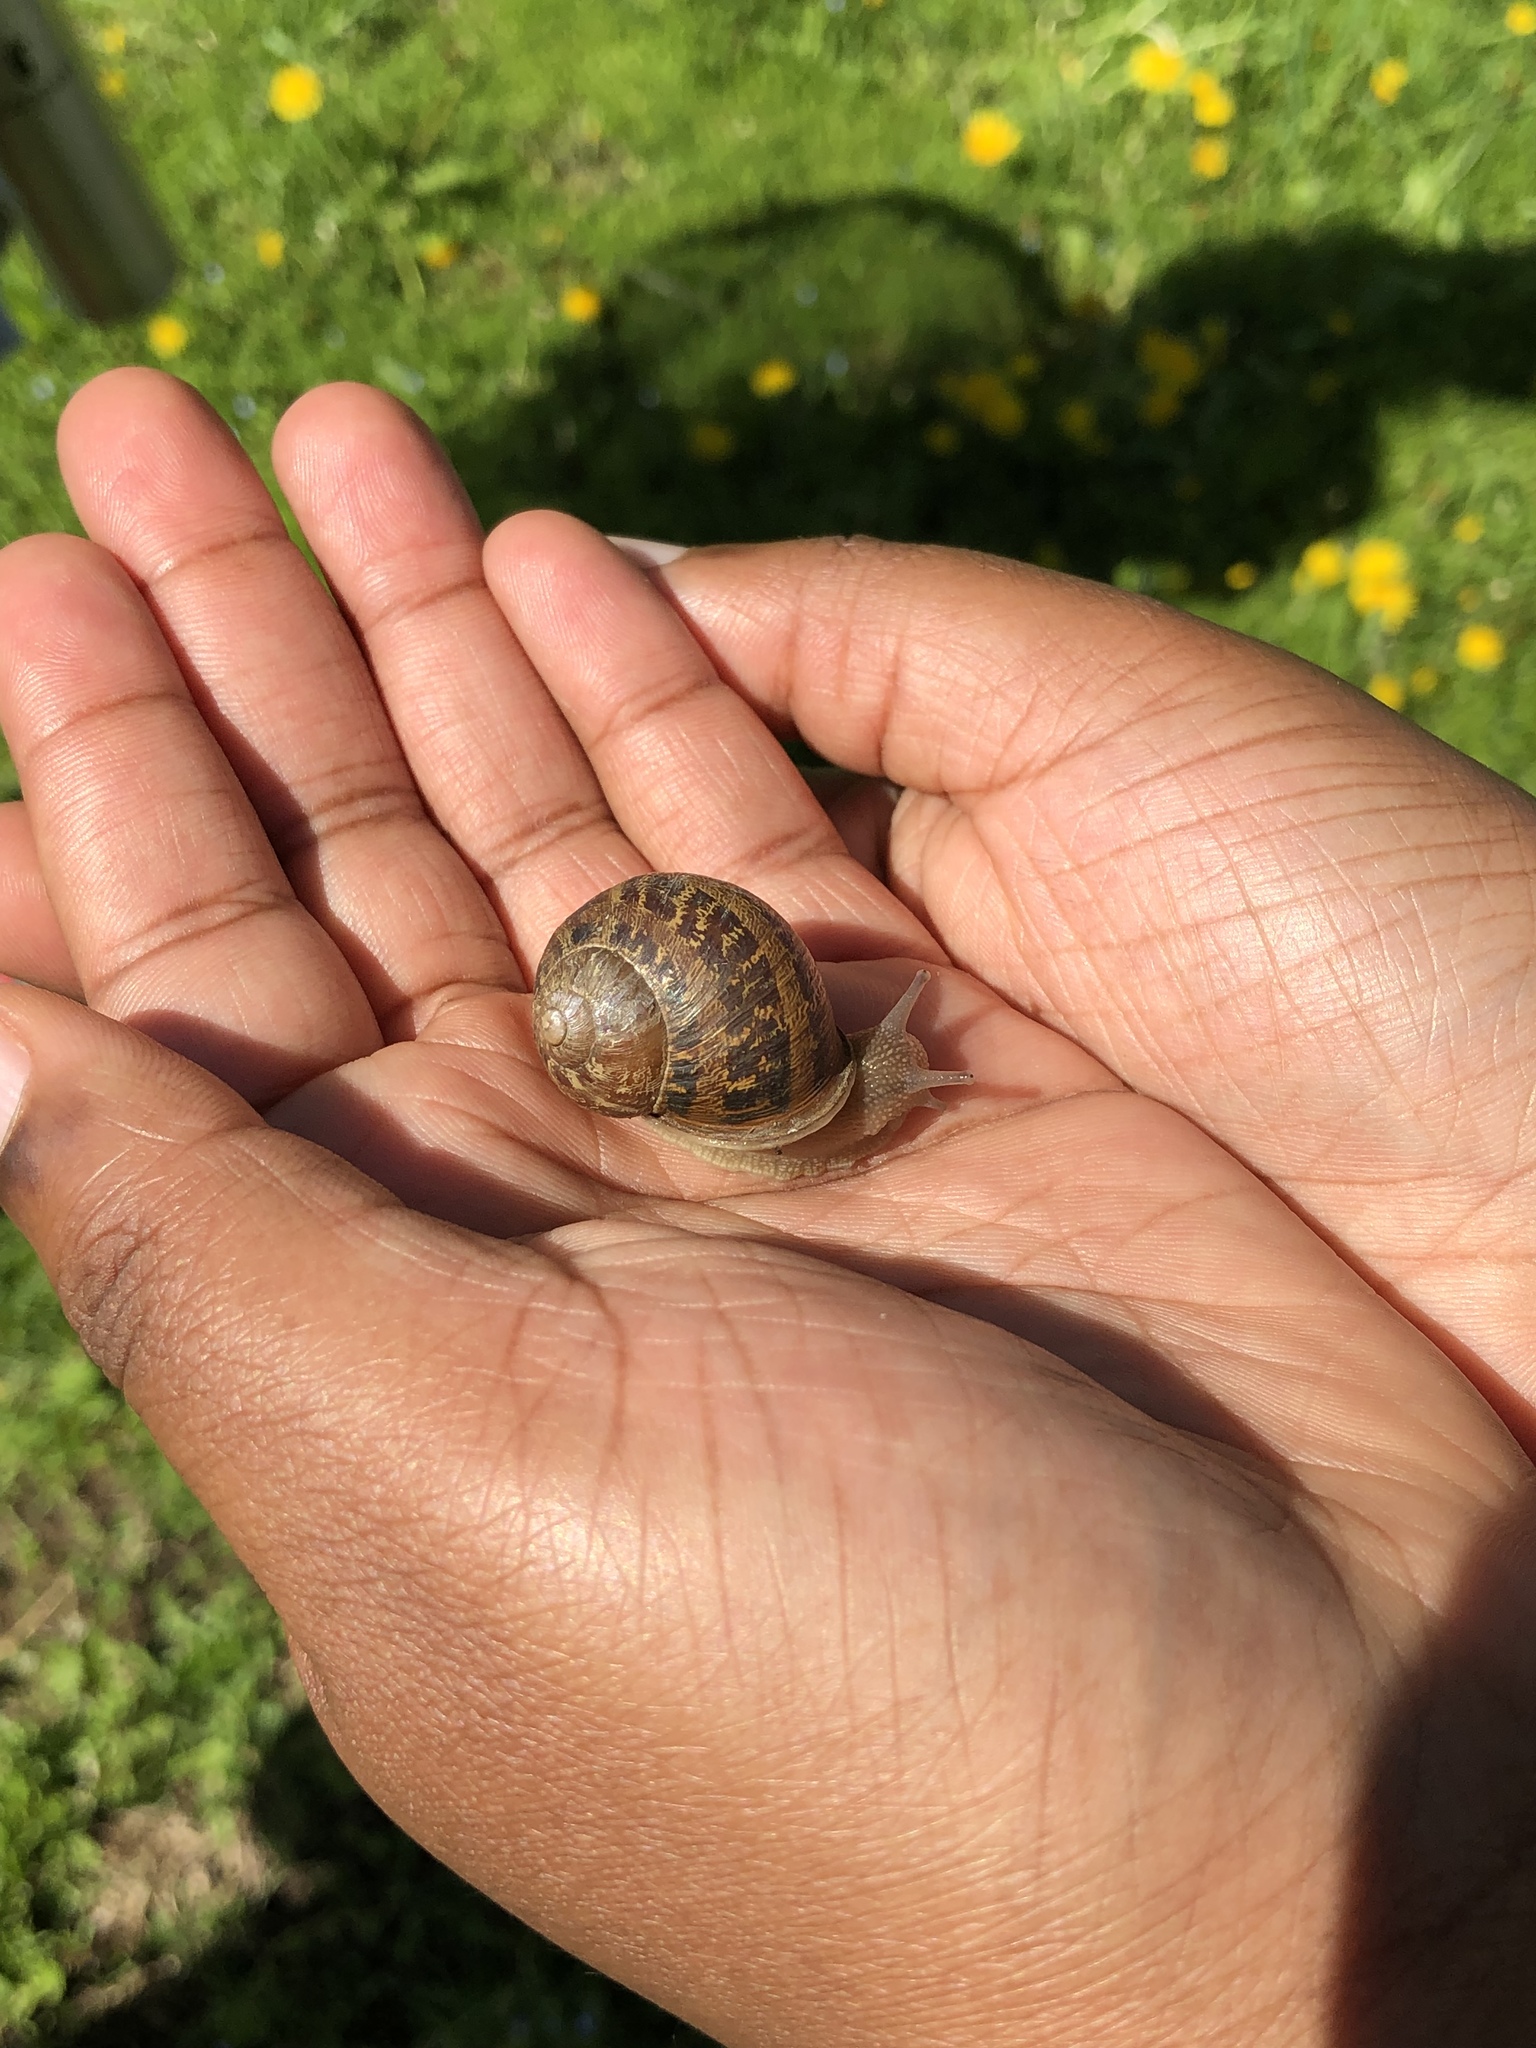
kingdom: Animalia
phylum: Mollusca
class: Gastropoda
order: Stylommatophora
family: Helicidae
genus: Cornu
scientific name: Cornu aspersum
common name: Brown garden snail
